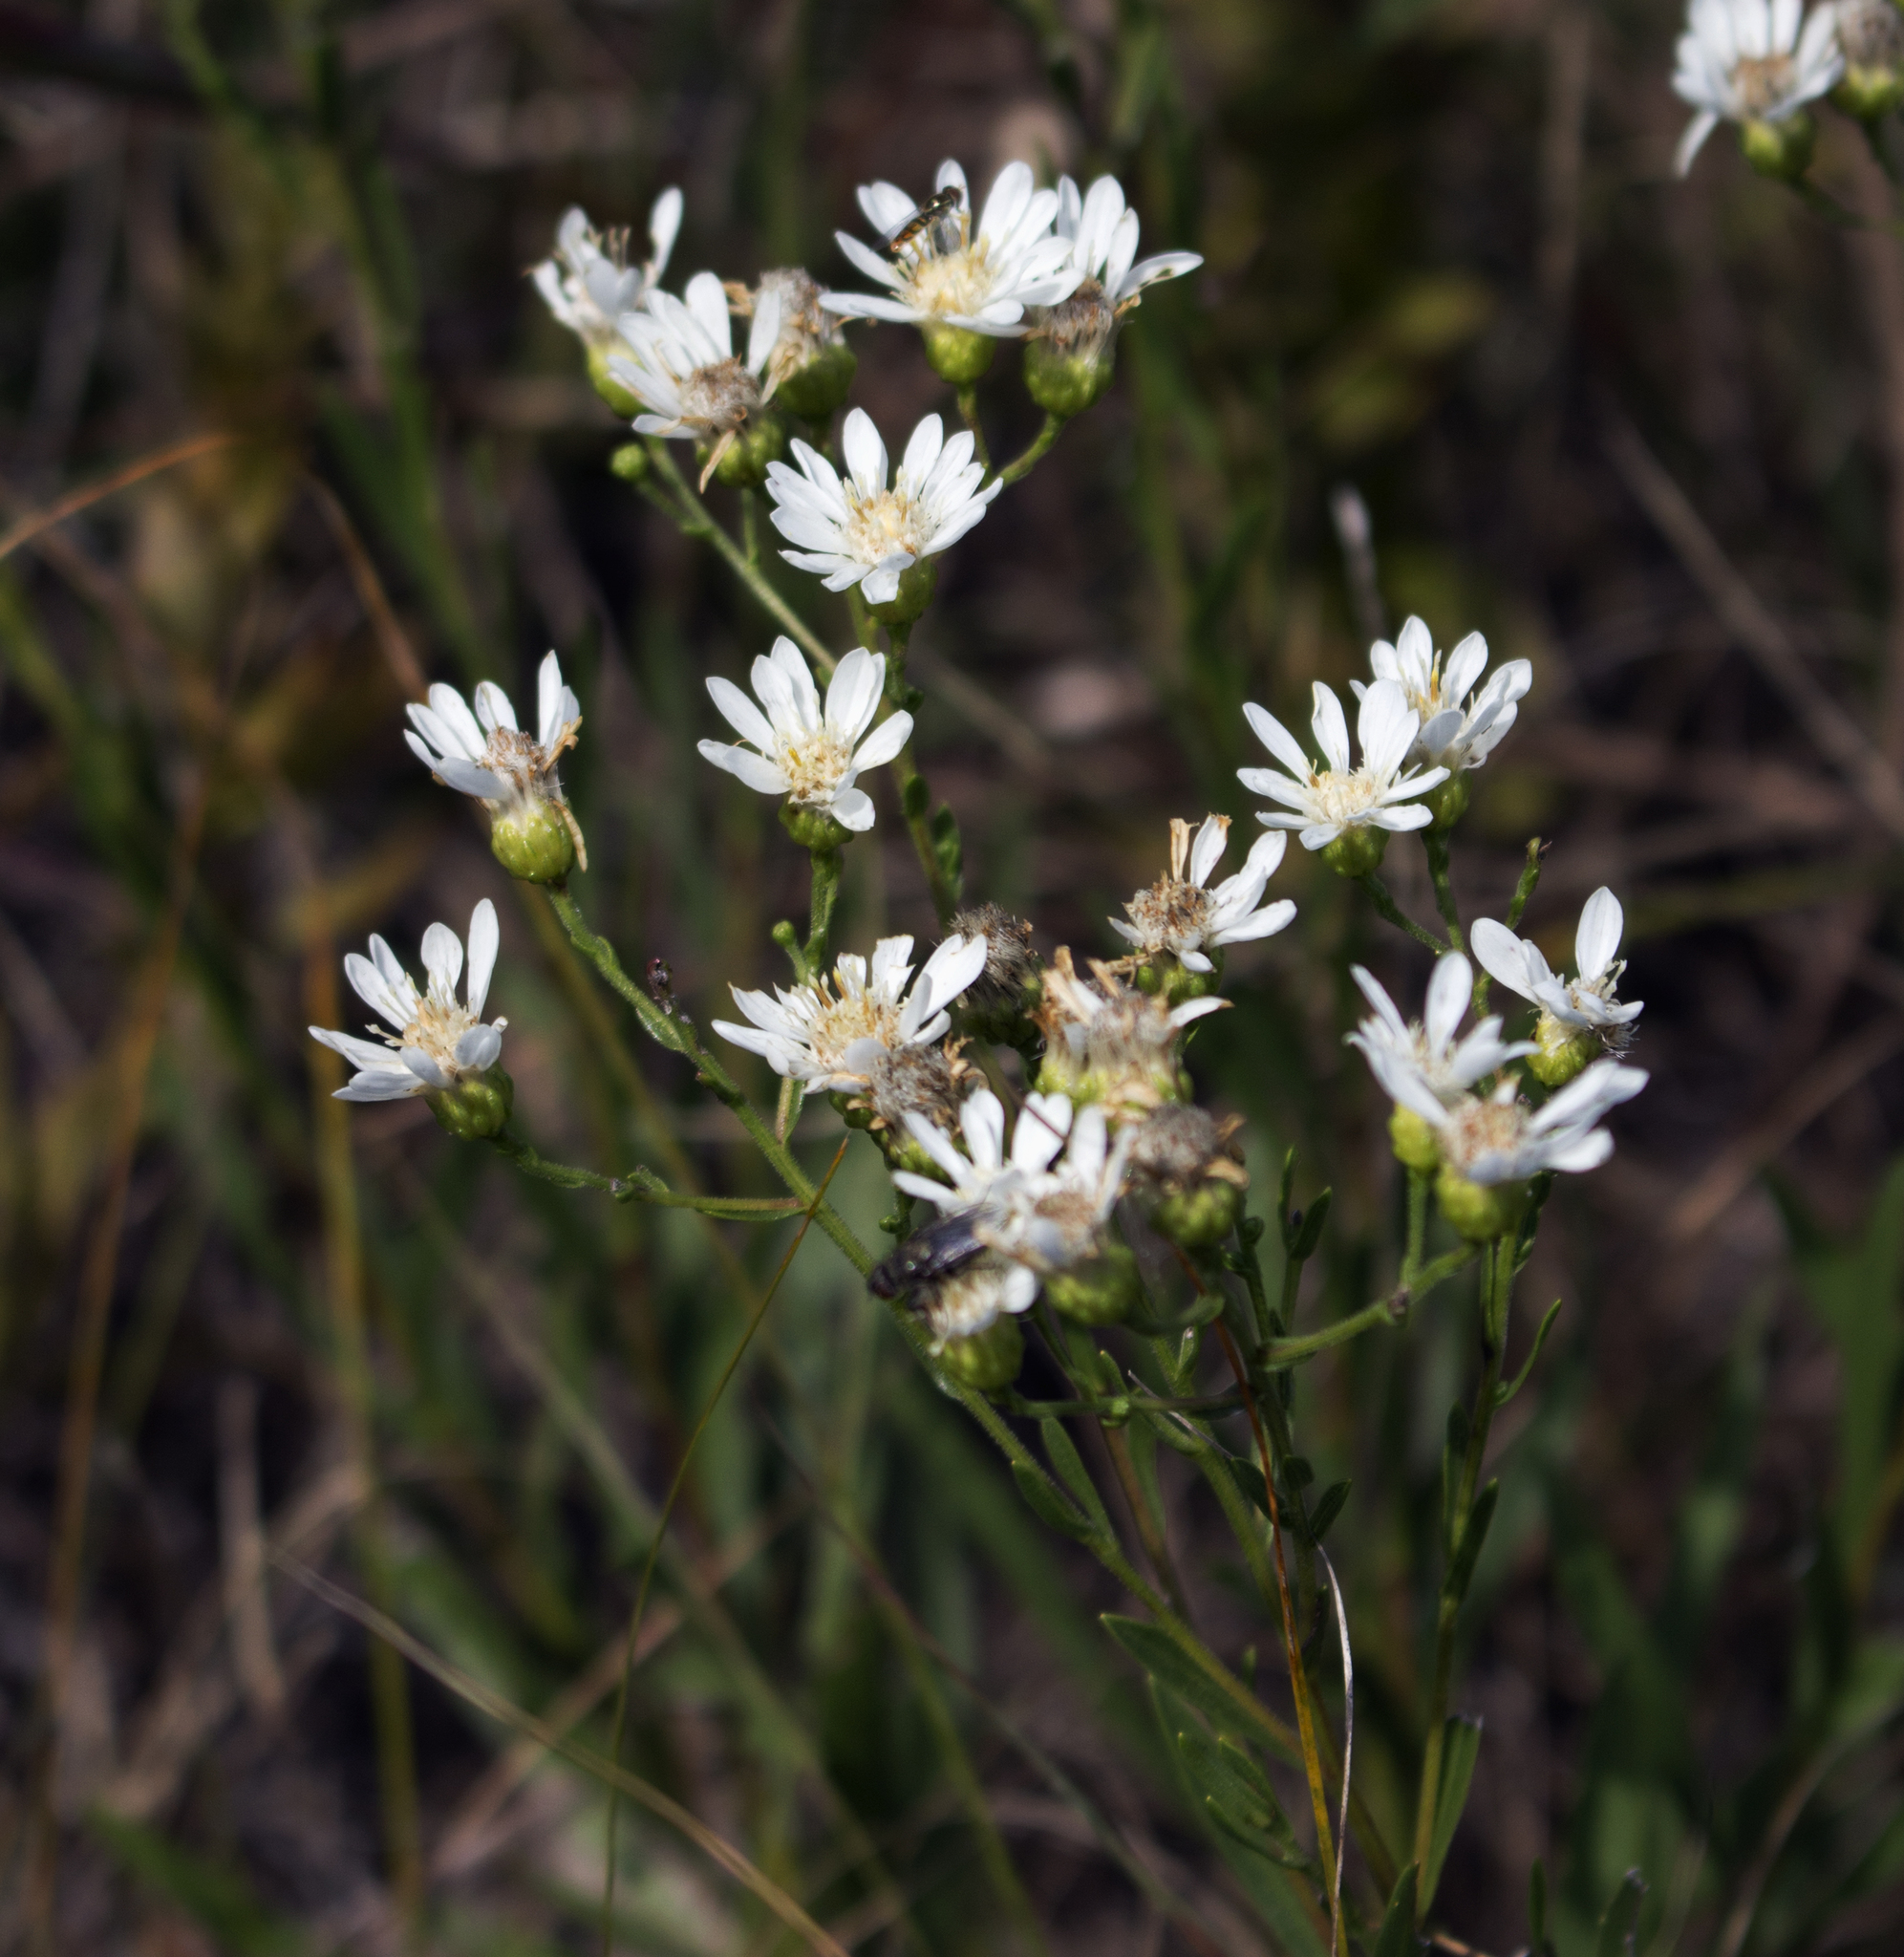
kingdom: Plantae
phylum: Tracheophyta
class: Magnoliopsida
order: Asterales
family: Asteraceae
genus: Solidago
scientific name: Solidago ptarmicoides
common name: White flat-top goldenrod
